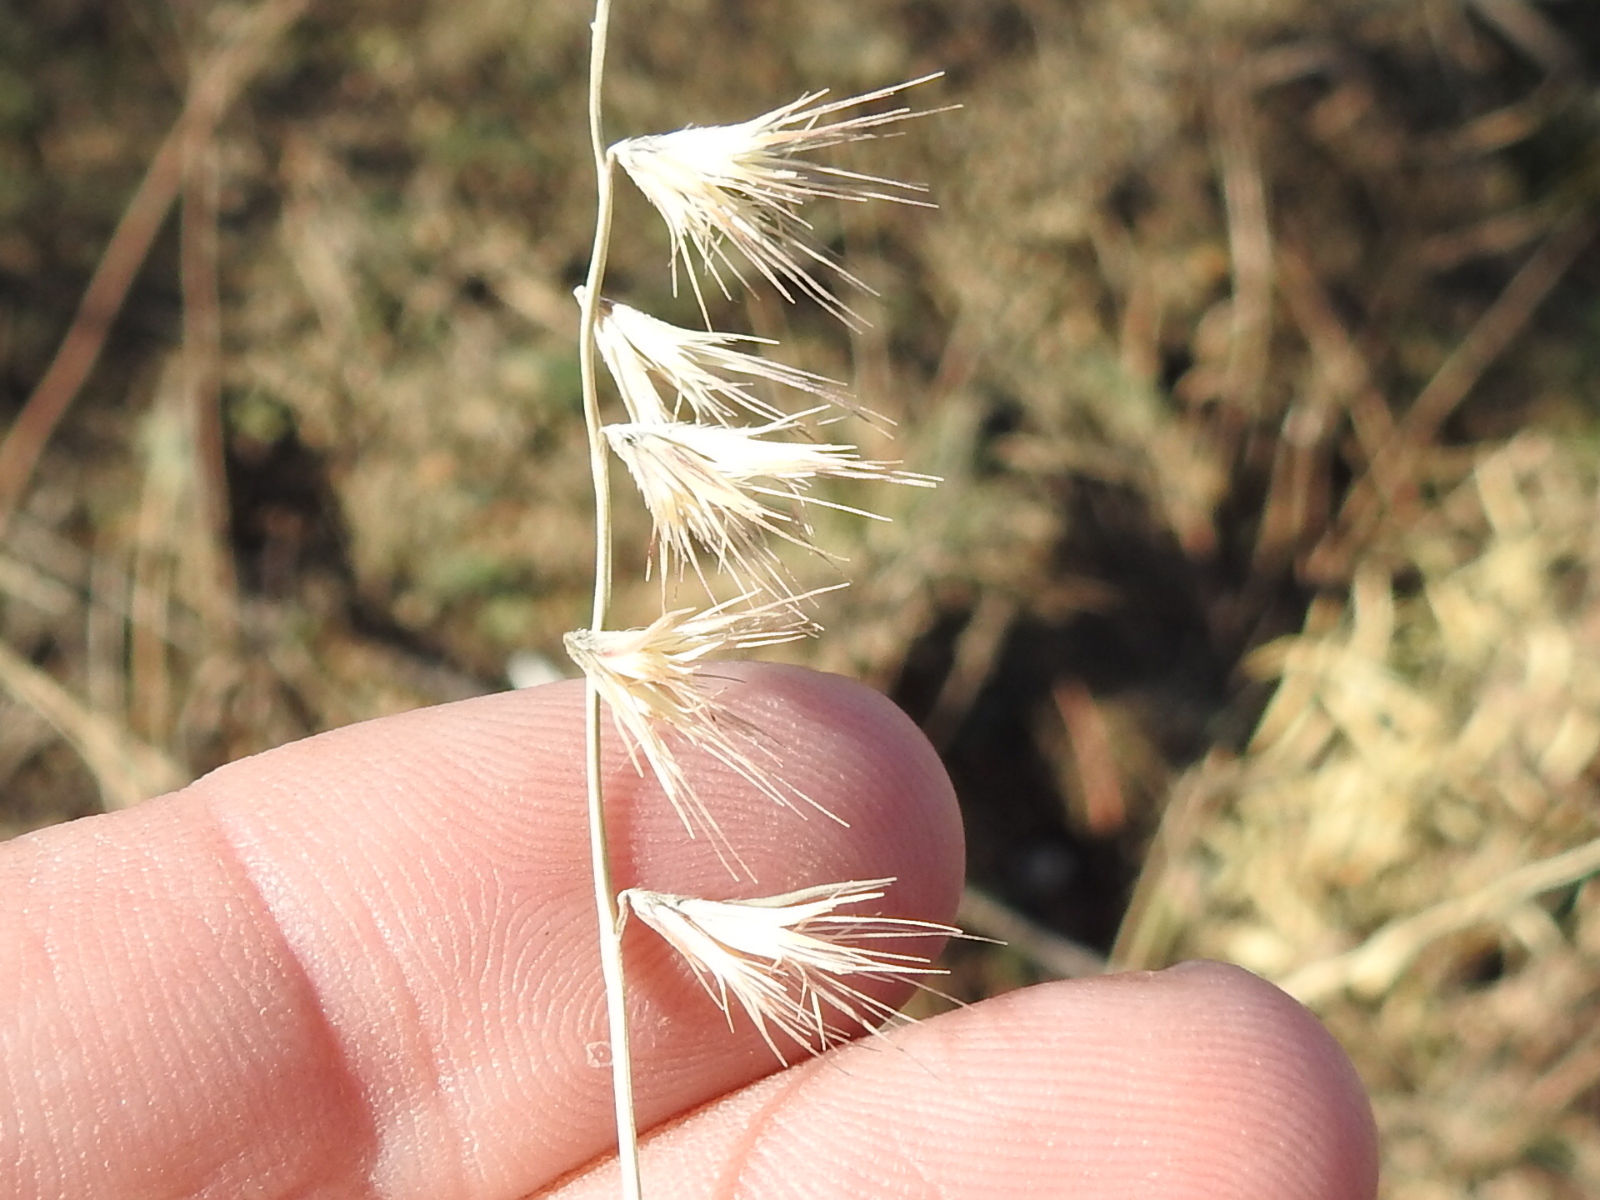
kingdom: Plantae
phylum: Tracheophyta
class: Liliopsida
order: Poales
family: Poaceae
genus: Bouteloua
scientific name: Bouteloua rigidiseta
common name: Texas grama
